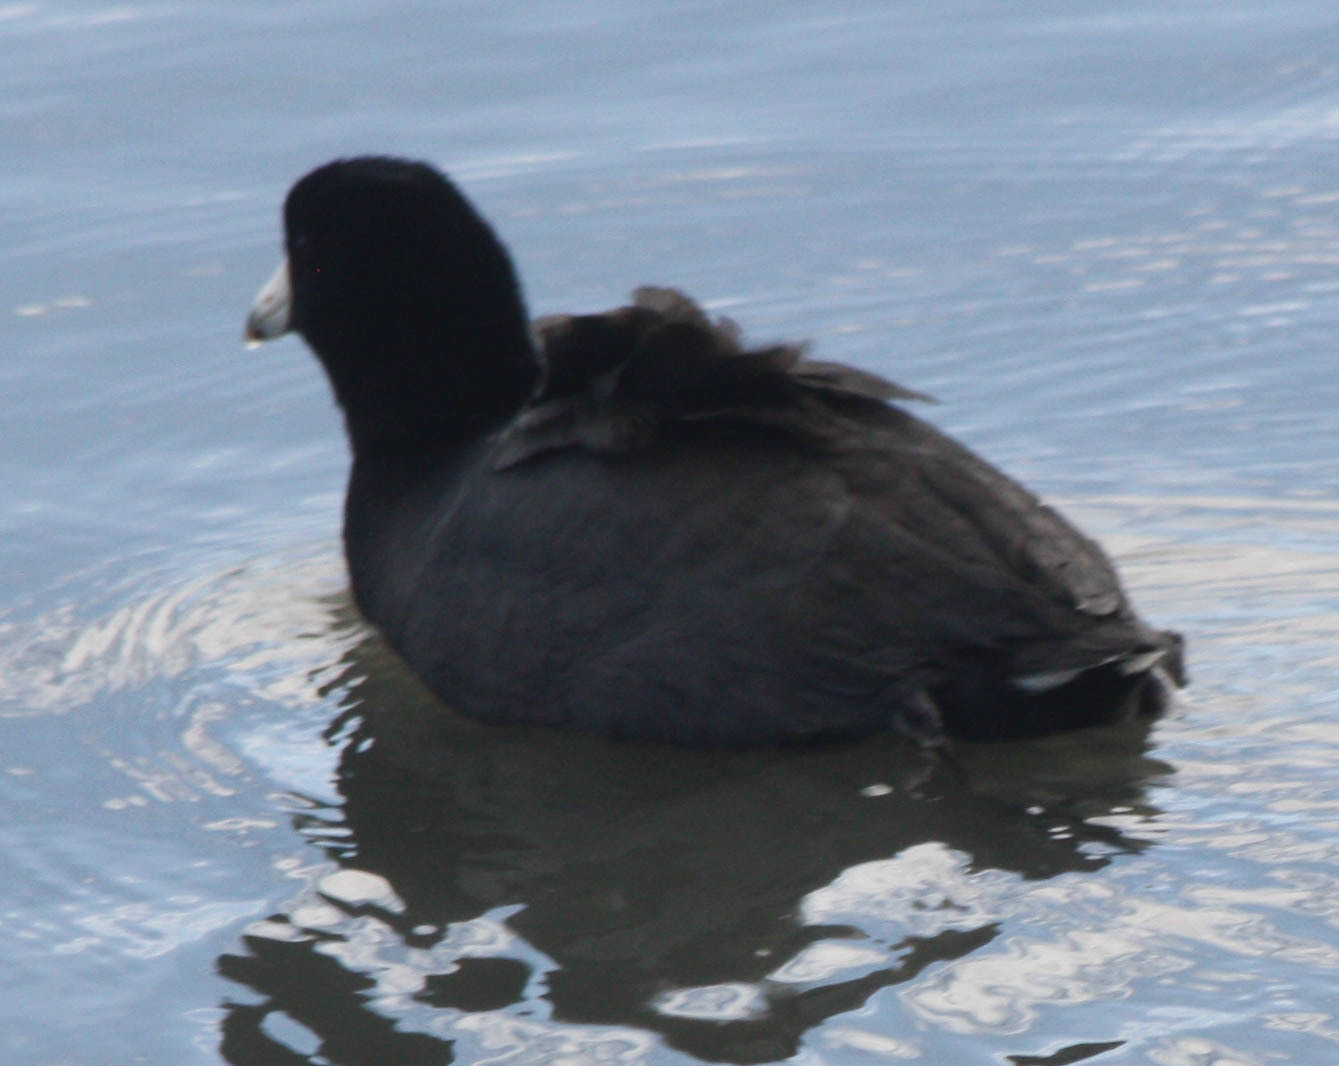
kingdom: Animalia
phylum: Chordata
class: Aves
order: Gruiformes
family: Rallidae
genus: Fulica
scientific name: Fulica americana
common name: American coot
